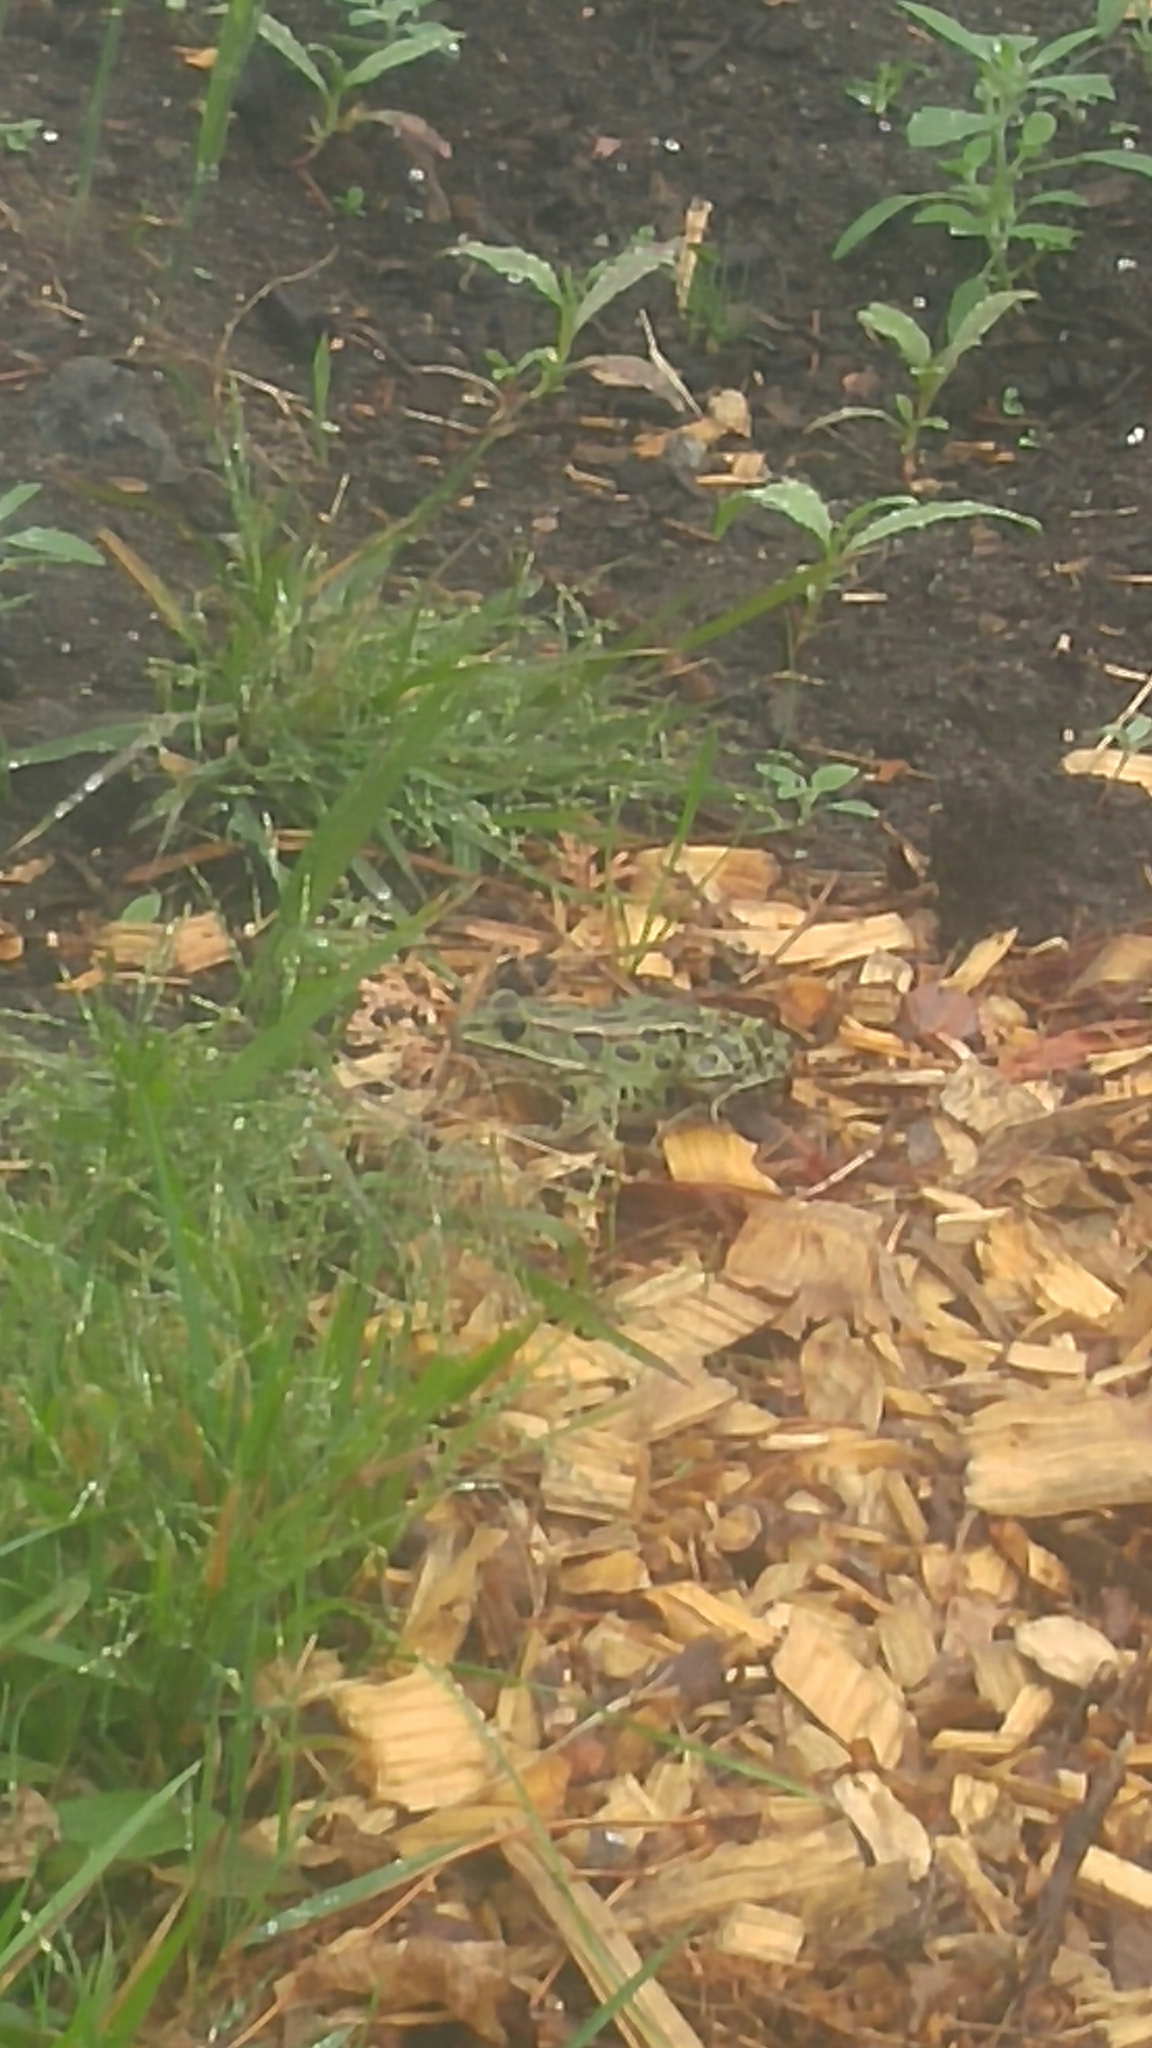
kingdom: Animalia
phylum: Chordata
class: Amphibia
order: Anura
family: Ranidae
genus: Lithobates
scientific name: Lithobates pipiens
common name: Northern leopard frog
